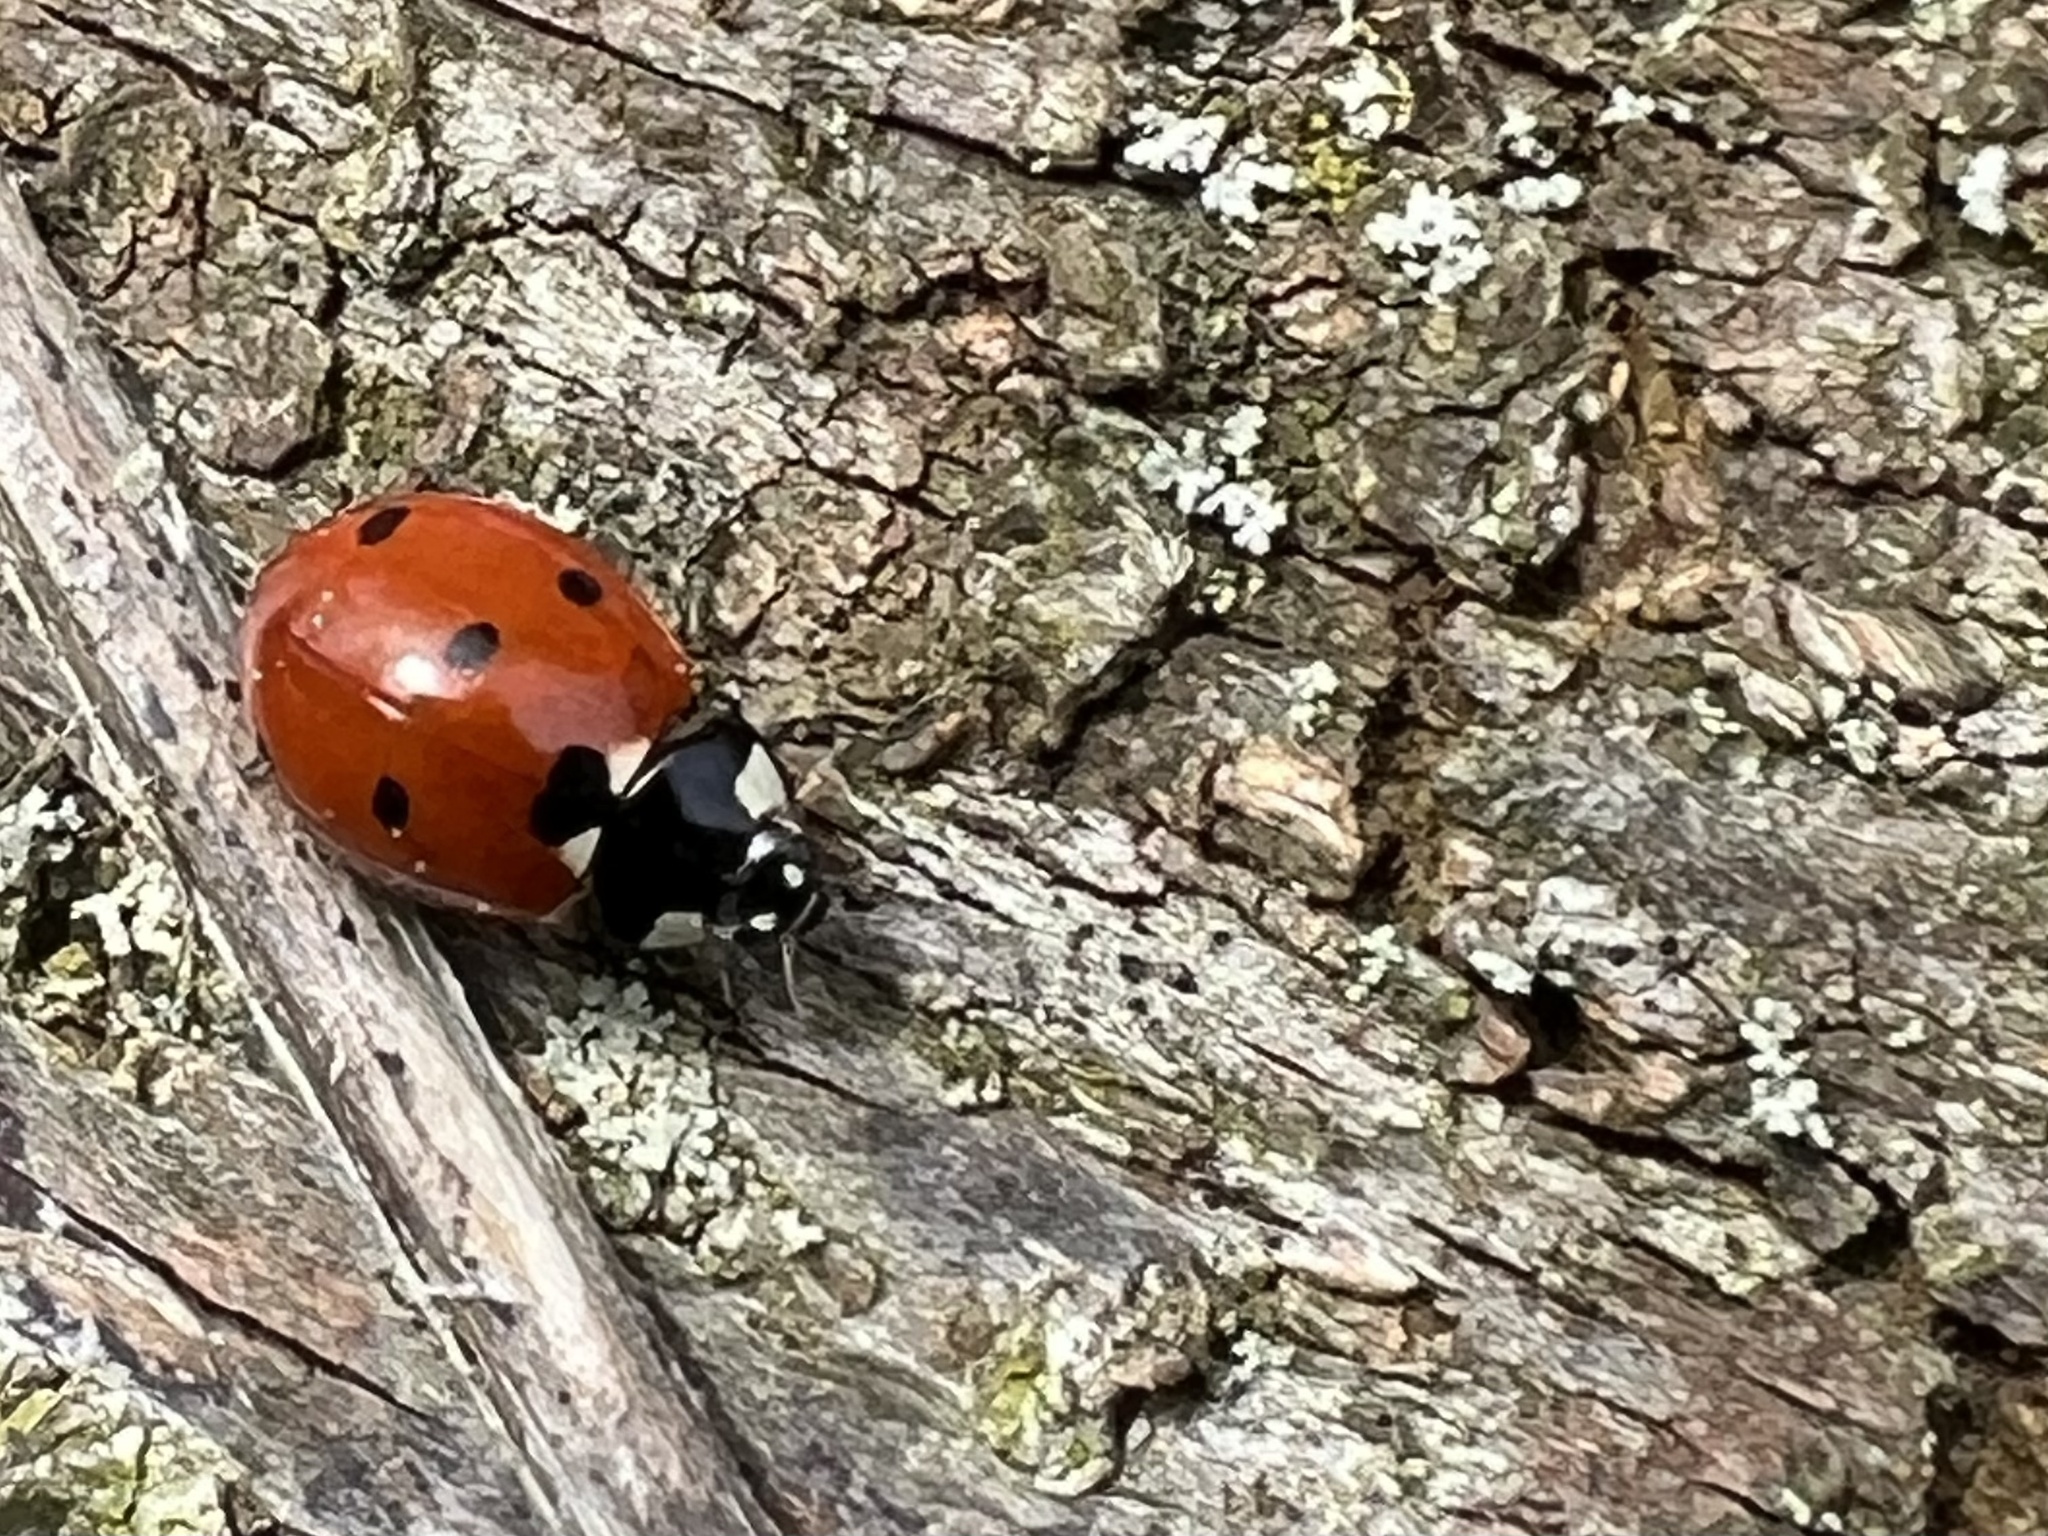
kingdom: Animalia
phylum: Arthropoda
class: Insecta
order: Coleoptera
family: Coccinellidae
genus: Coccinella
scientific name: Coccinella septempunctata
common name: Sevenspotted lady beetle
